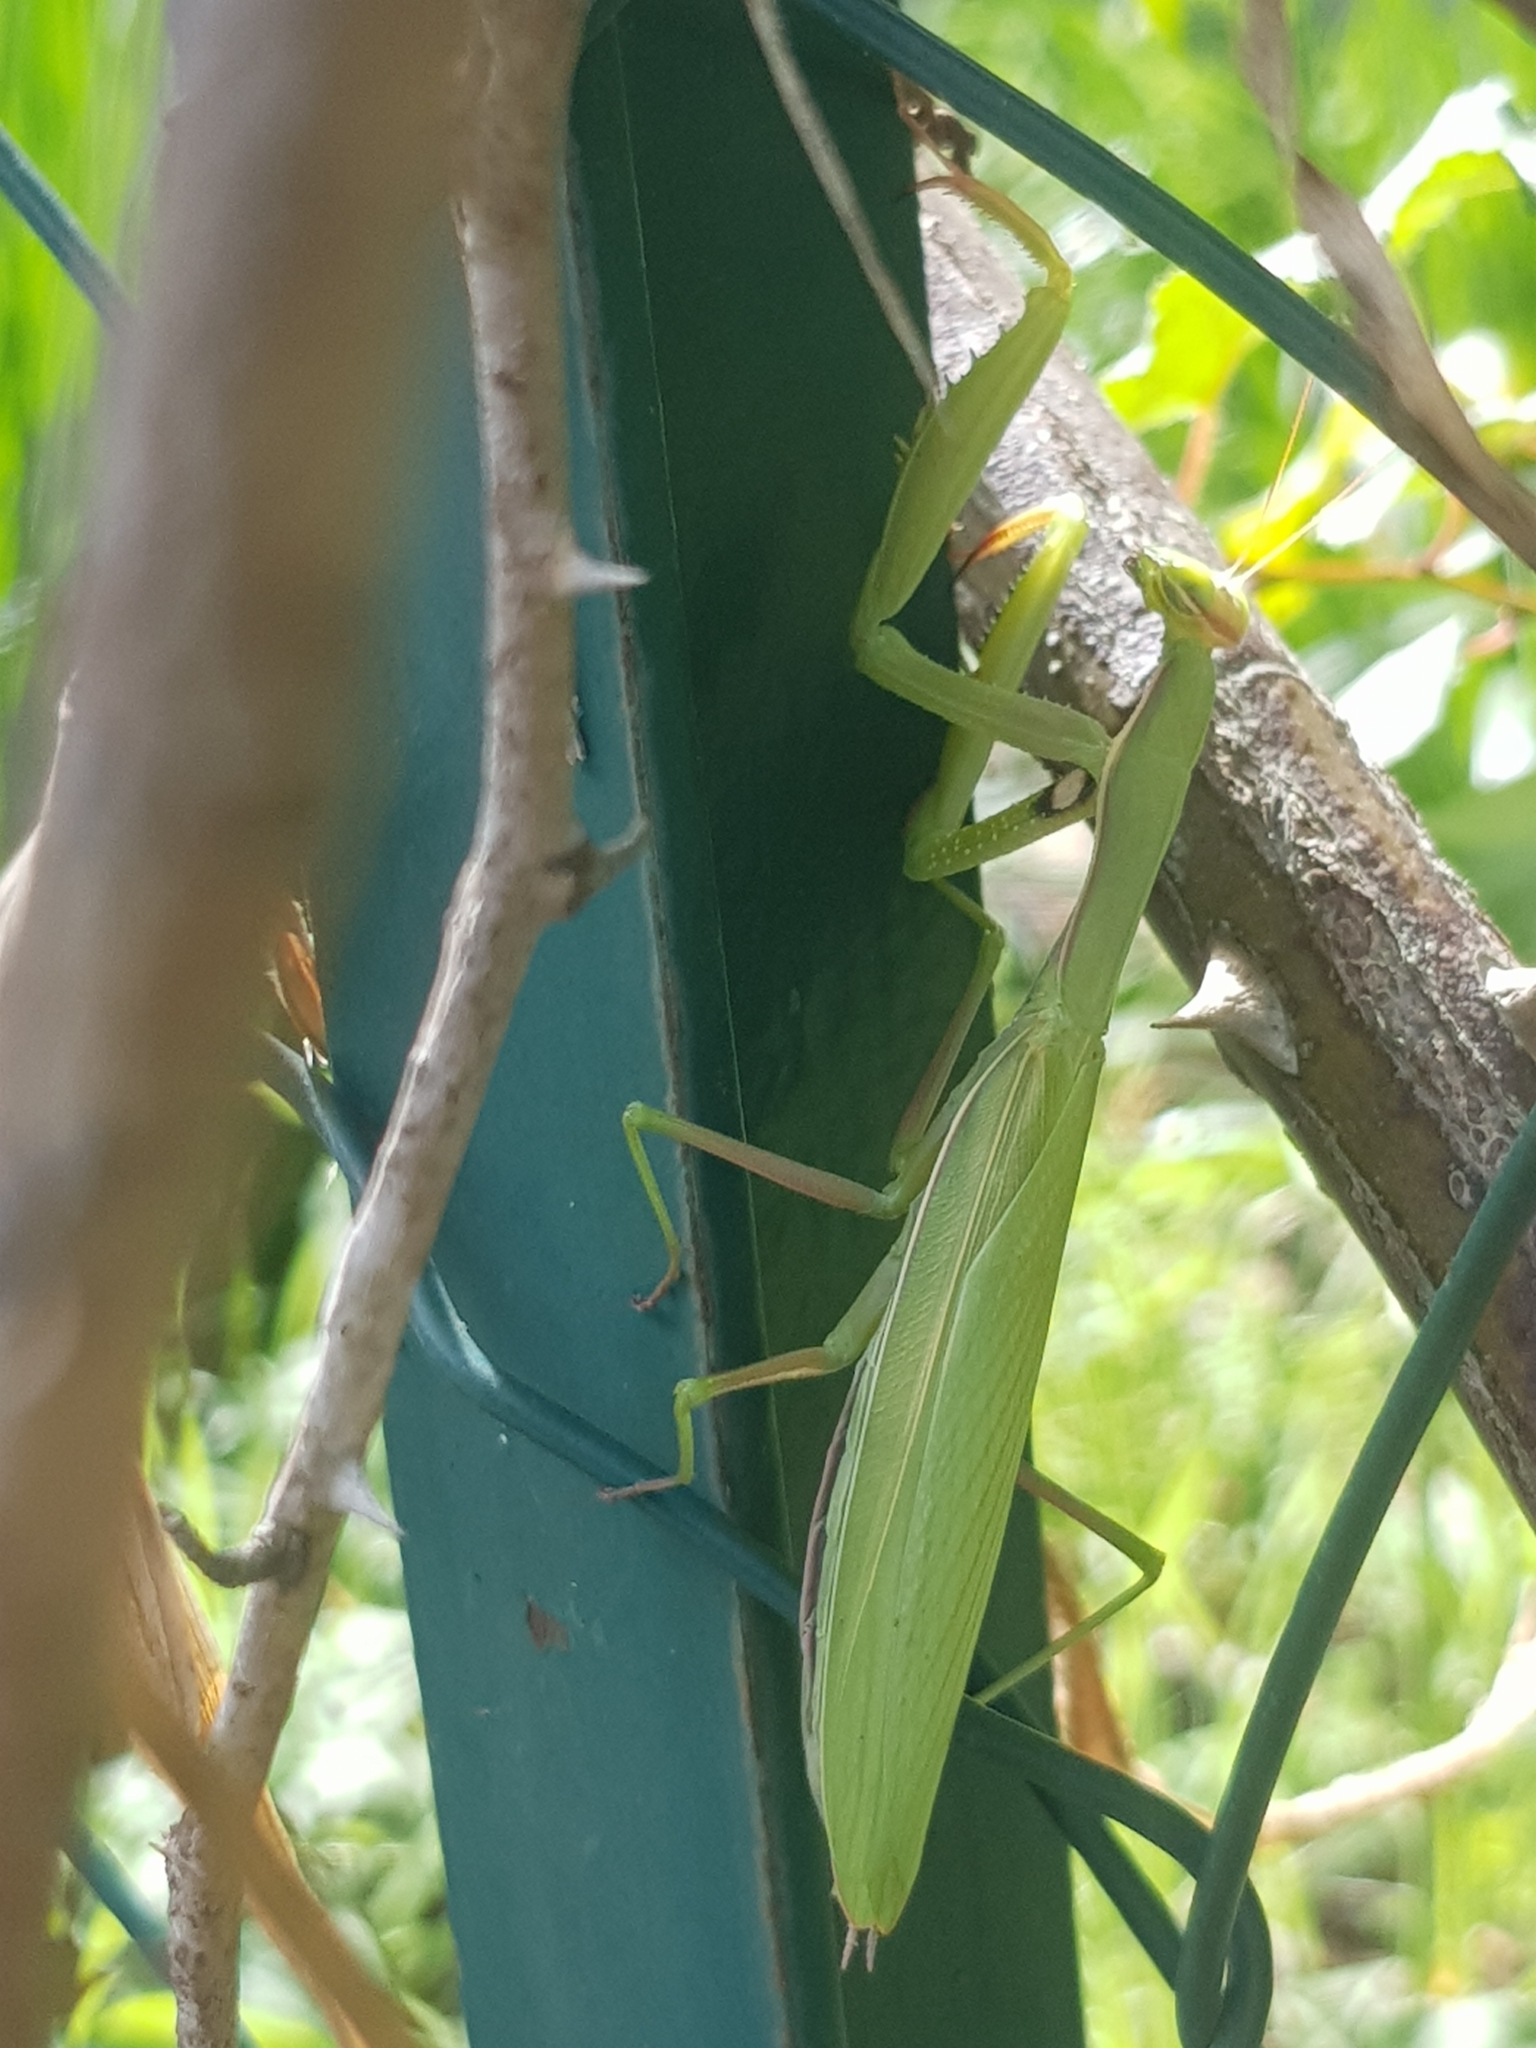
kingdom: Animalia
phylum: Arthropoda
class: Insecta
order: Mantodea
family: Mantidae
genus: Mantis
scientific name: Mantis religiosa
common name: Praying mantis
